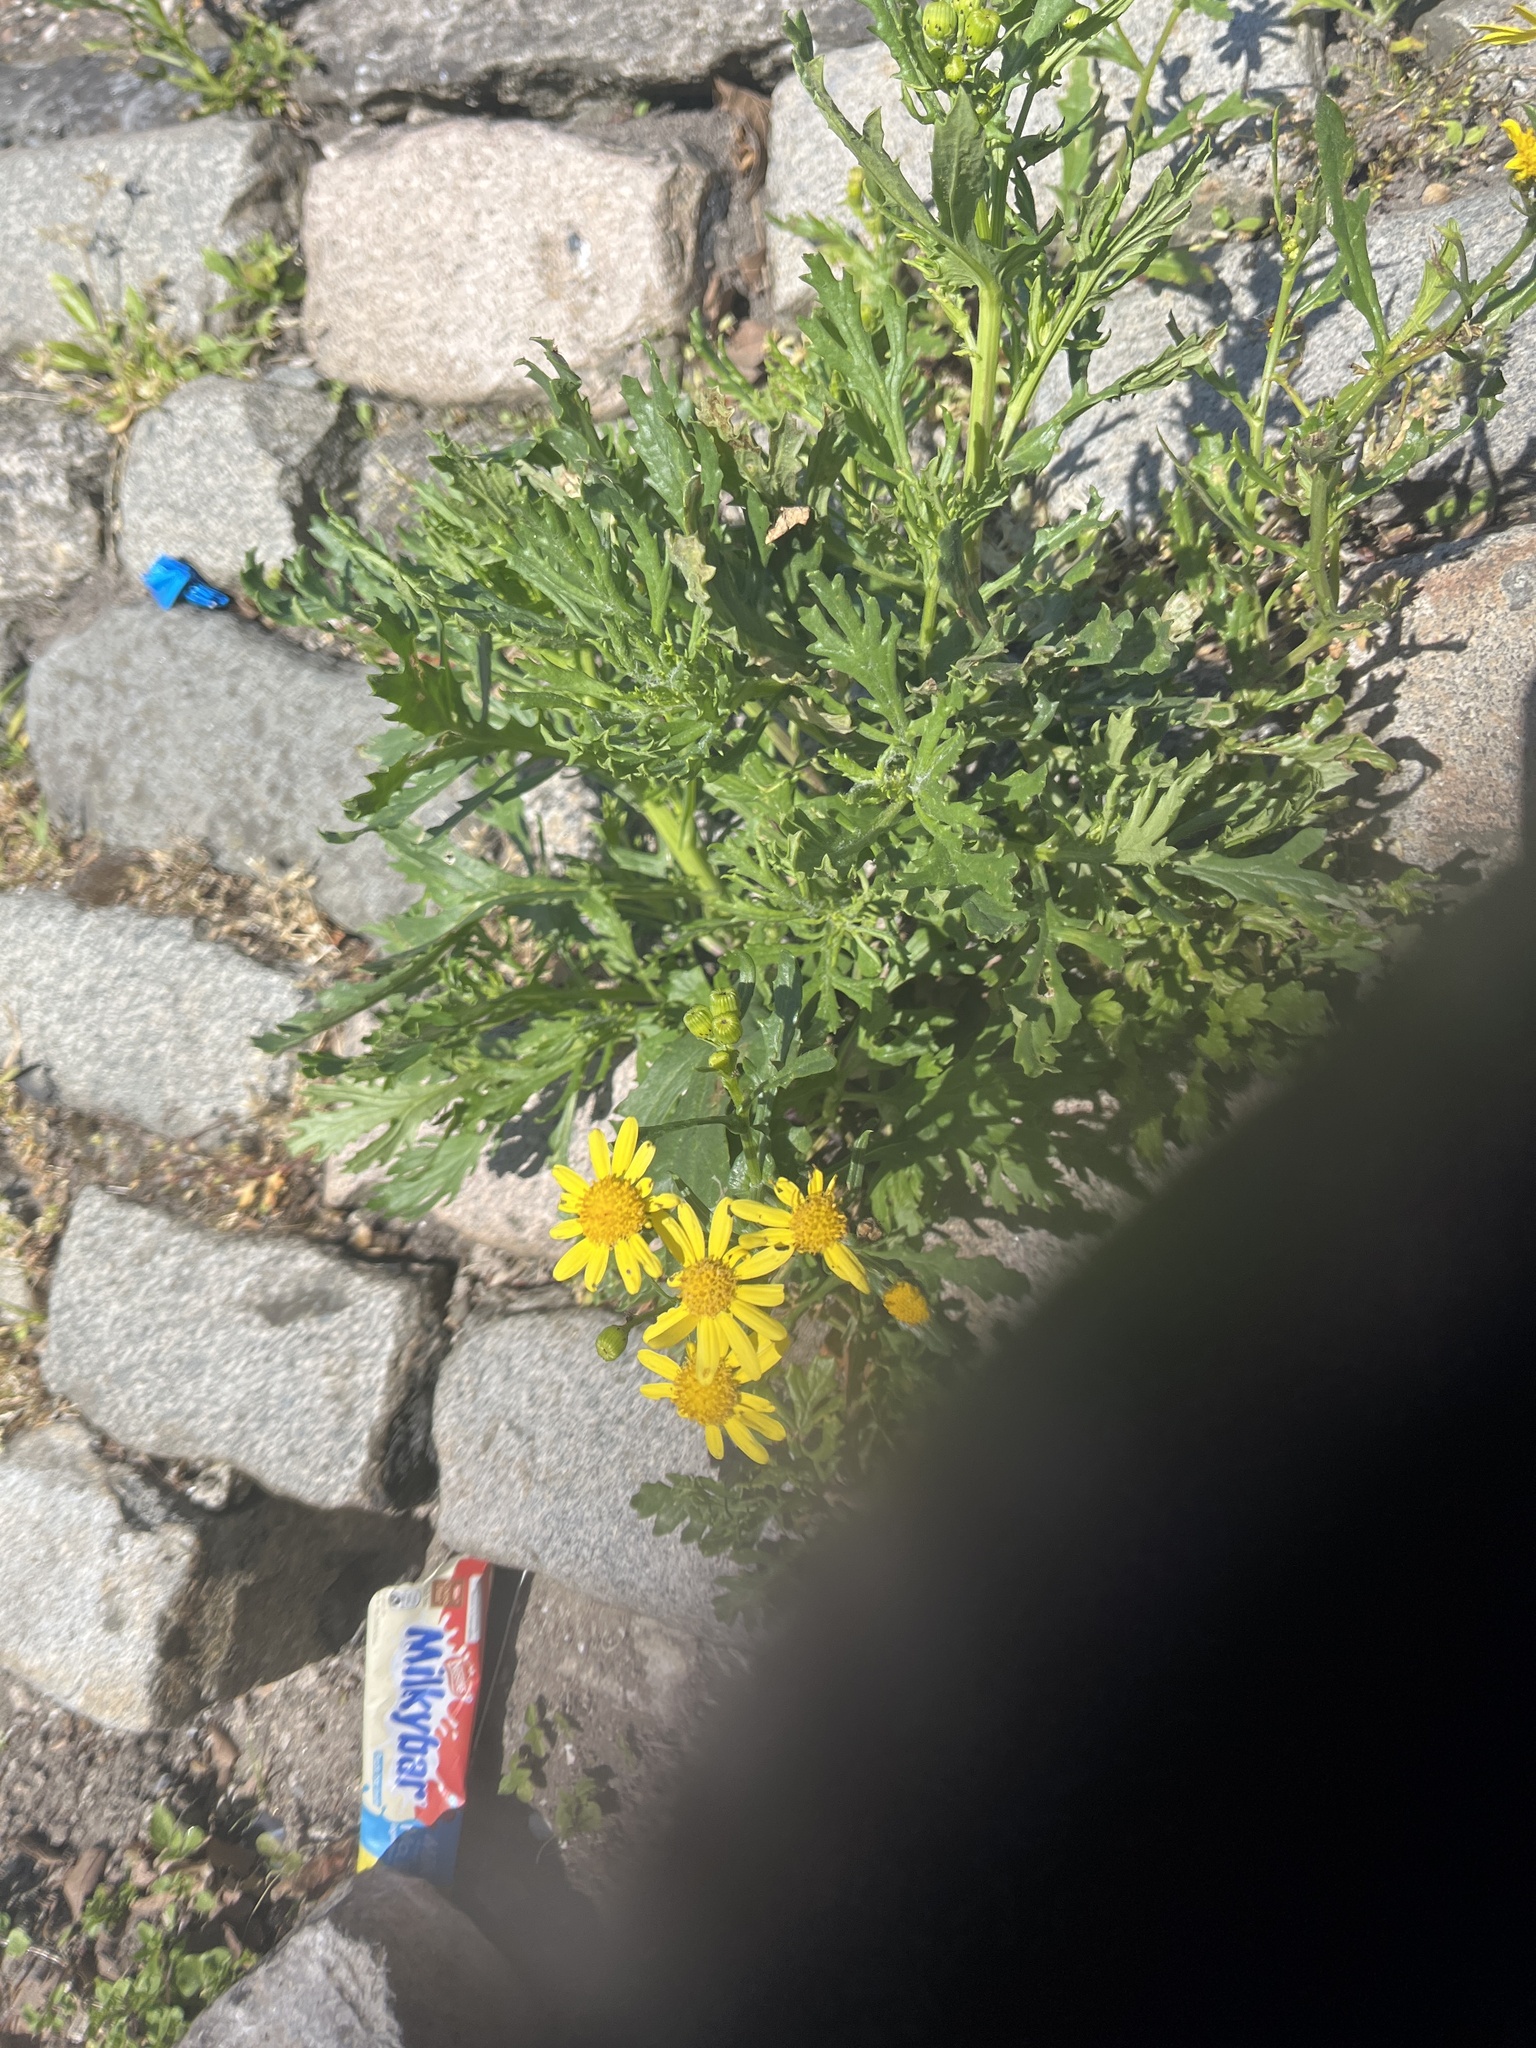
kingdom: Plantae
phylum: Tracheophyta
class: Magnoliopsida
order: Asterales
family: Asteraceae
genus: Senecio
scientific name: Senecio squalidus
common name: Oxford ragwort
